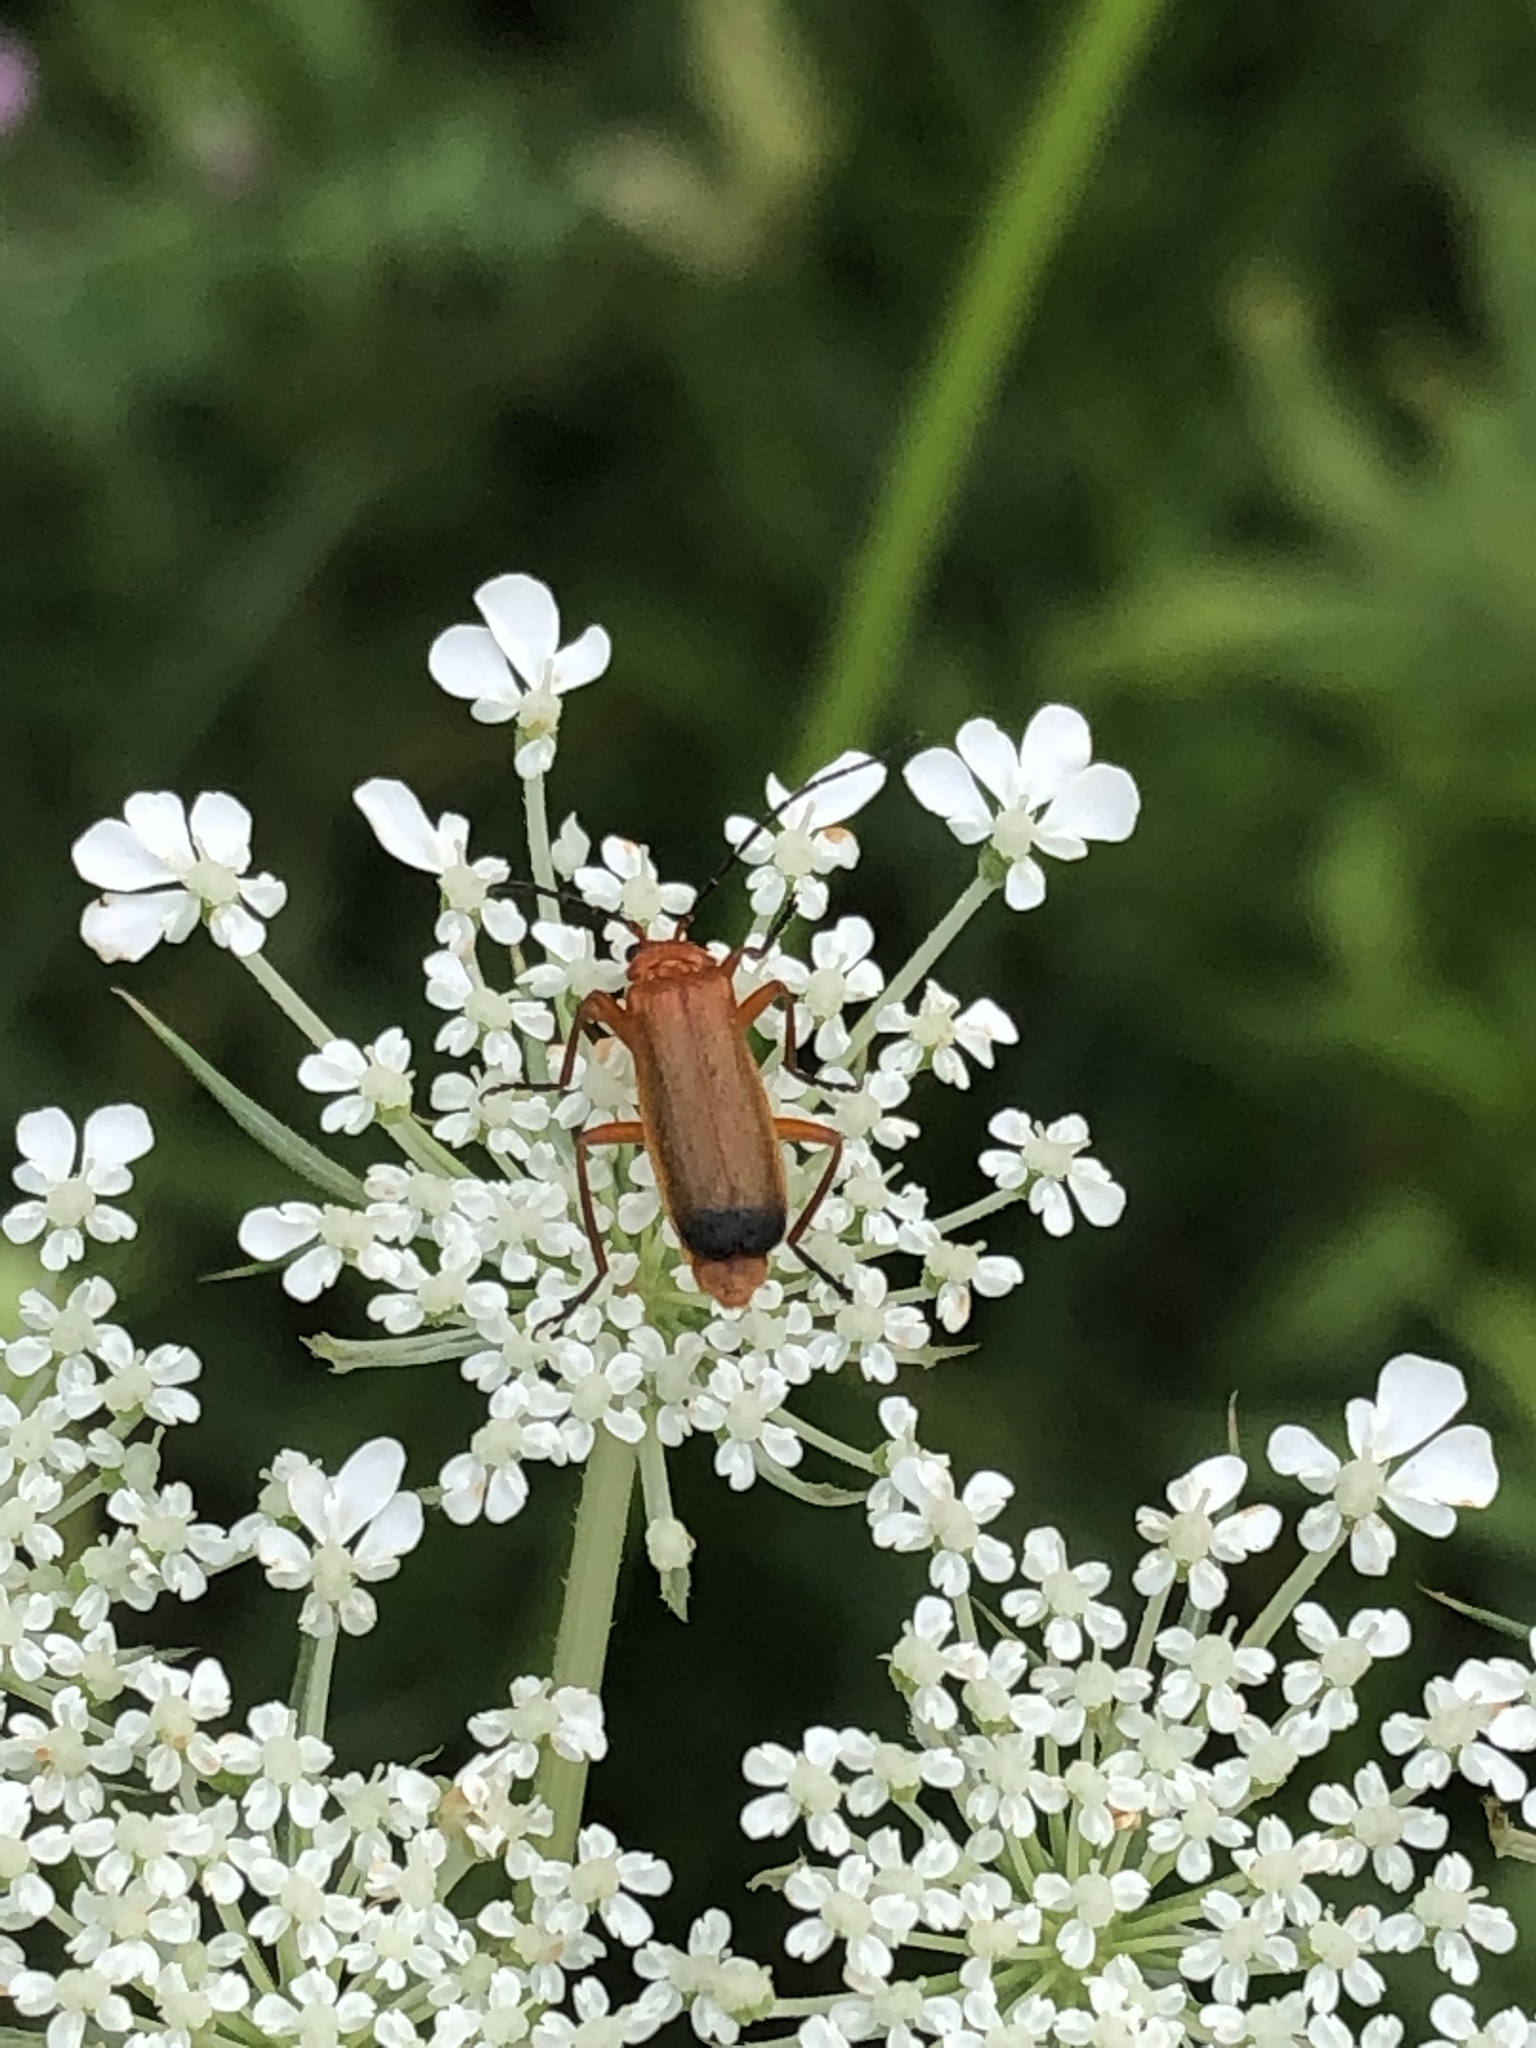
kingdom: Animalia
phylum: Arthropoda
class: Insecta
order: Coleoptera
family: Cantharidae
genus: Rhagonycha
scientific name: Rhagonycha fulva
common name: Common red soldier beetle
